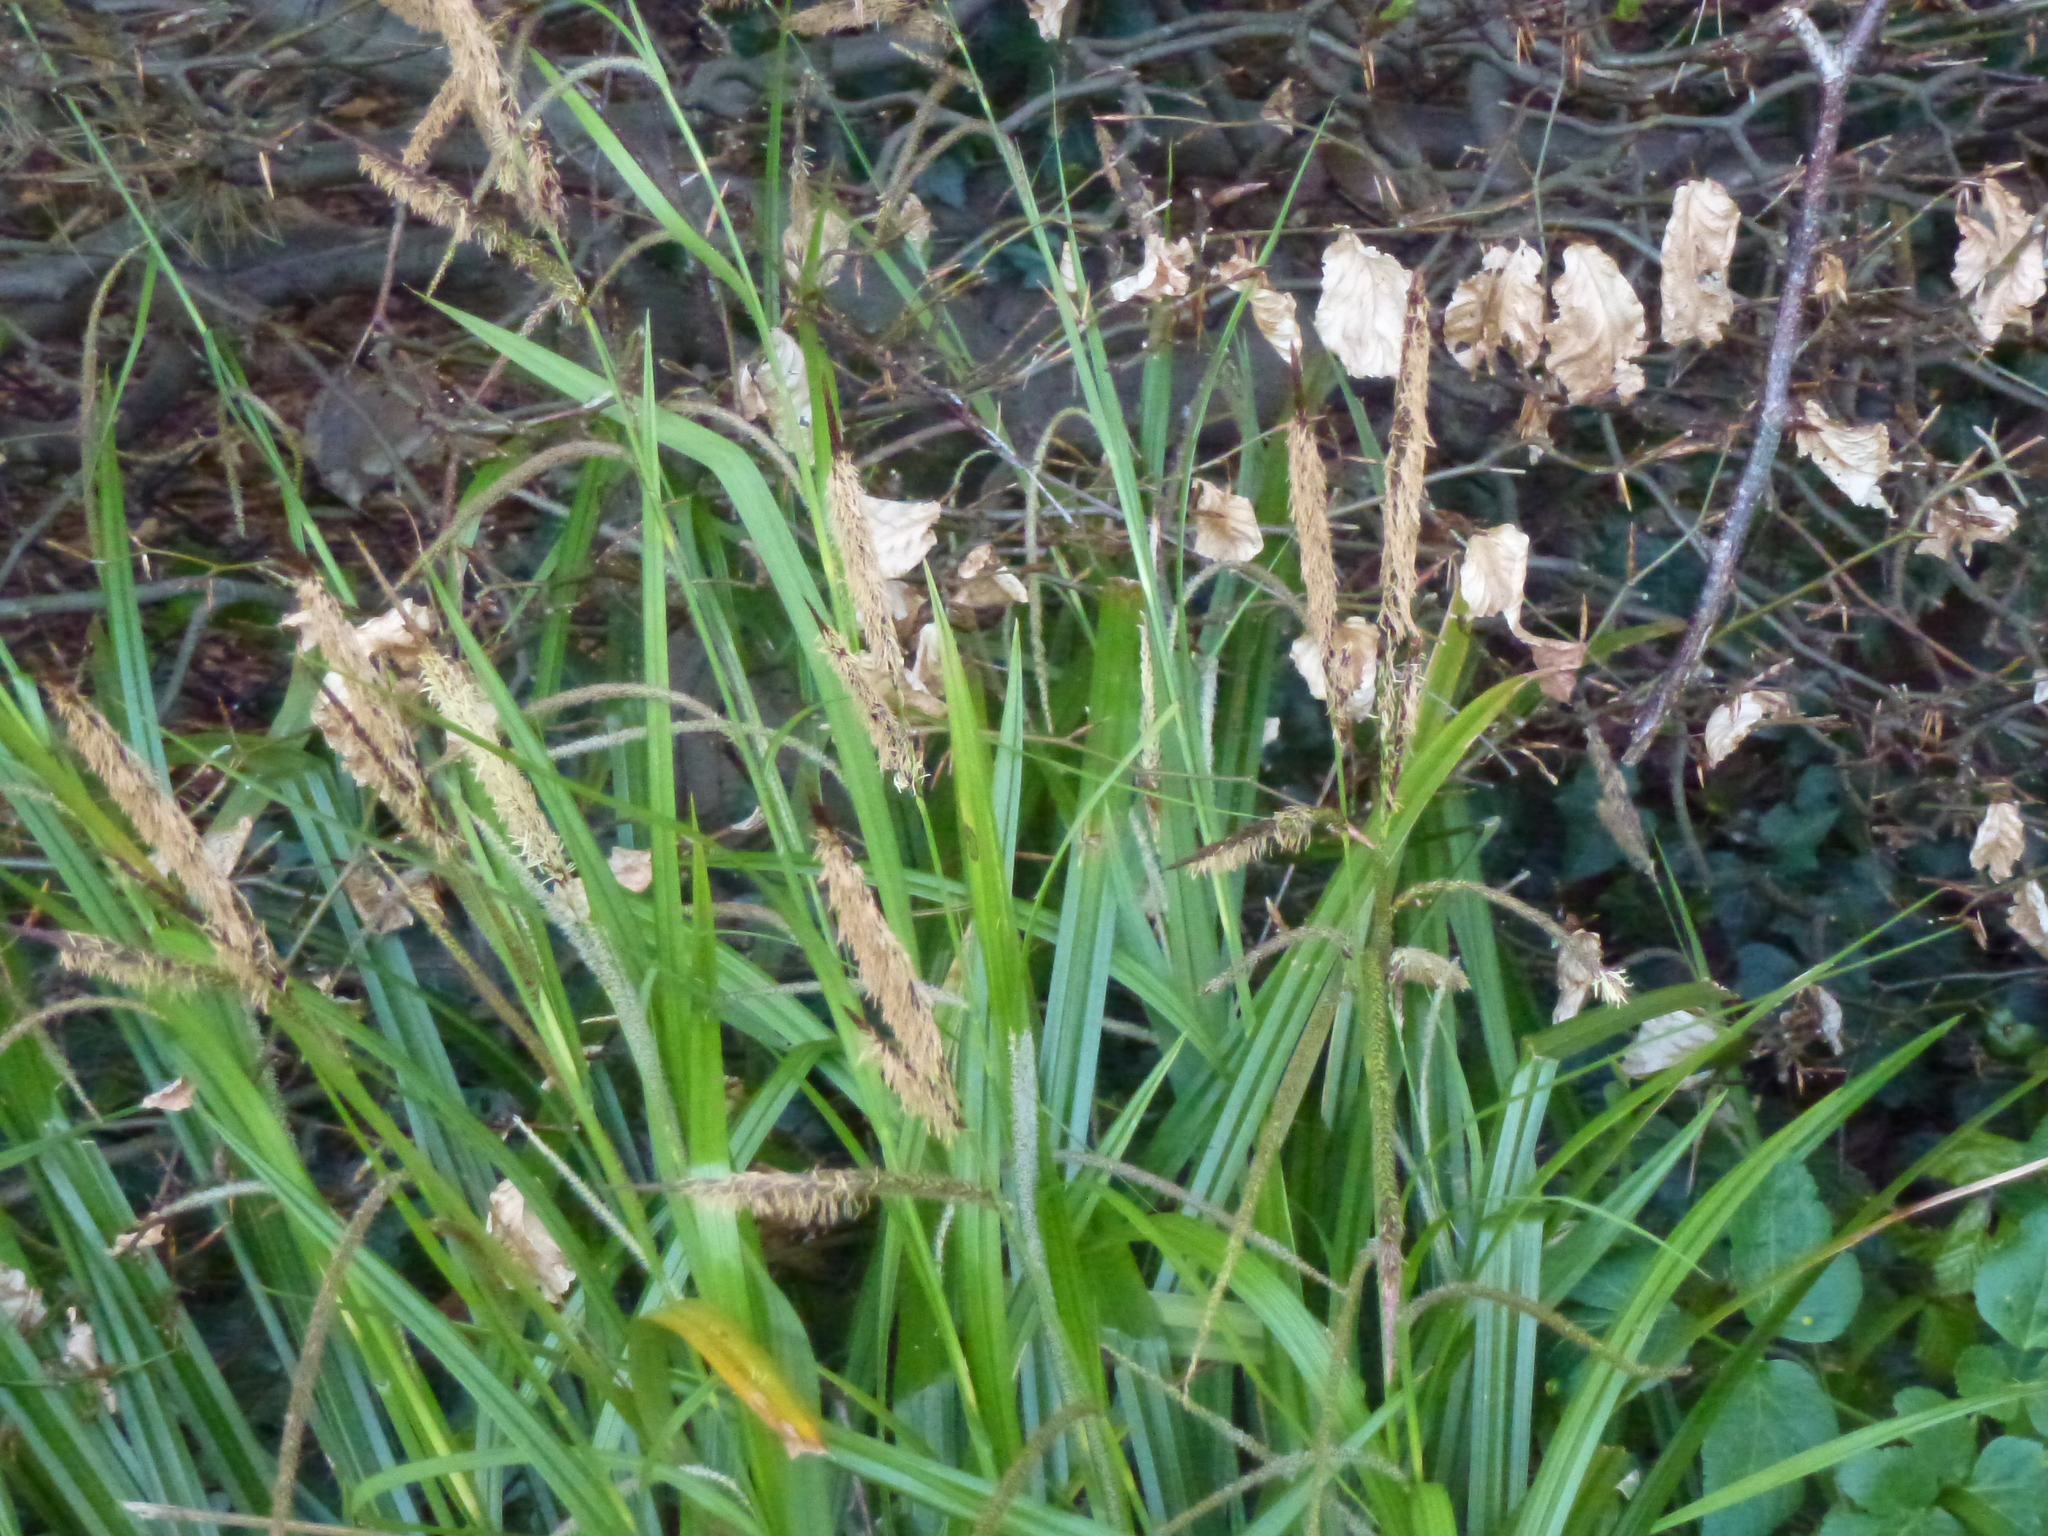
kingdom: Plantae
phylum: Tracheophyta
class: Liliopsida
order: Poales
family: Cyperaceae
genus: Carex
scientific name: Carex pendula
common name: Pendulous sedge
